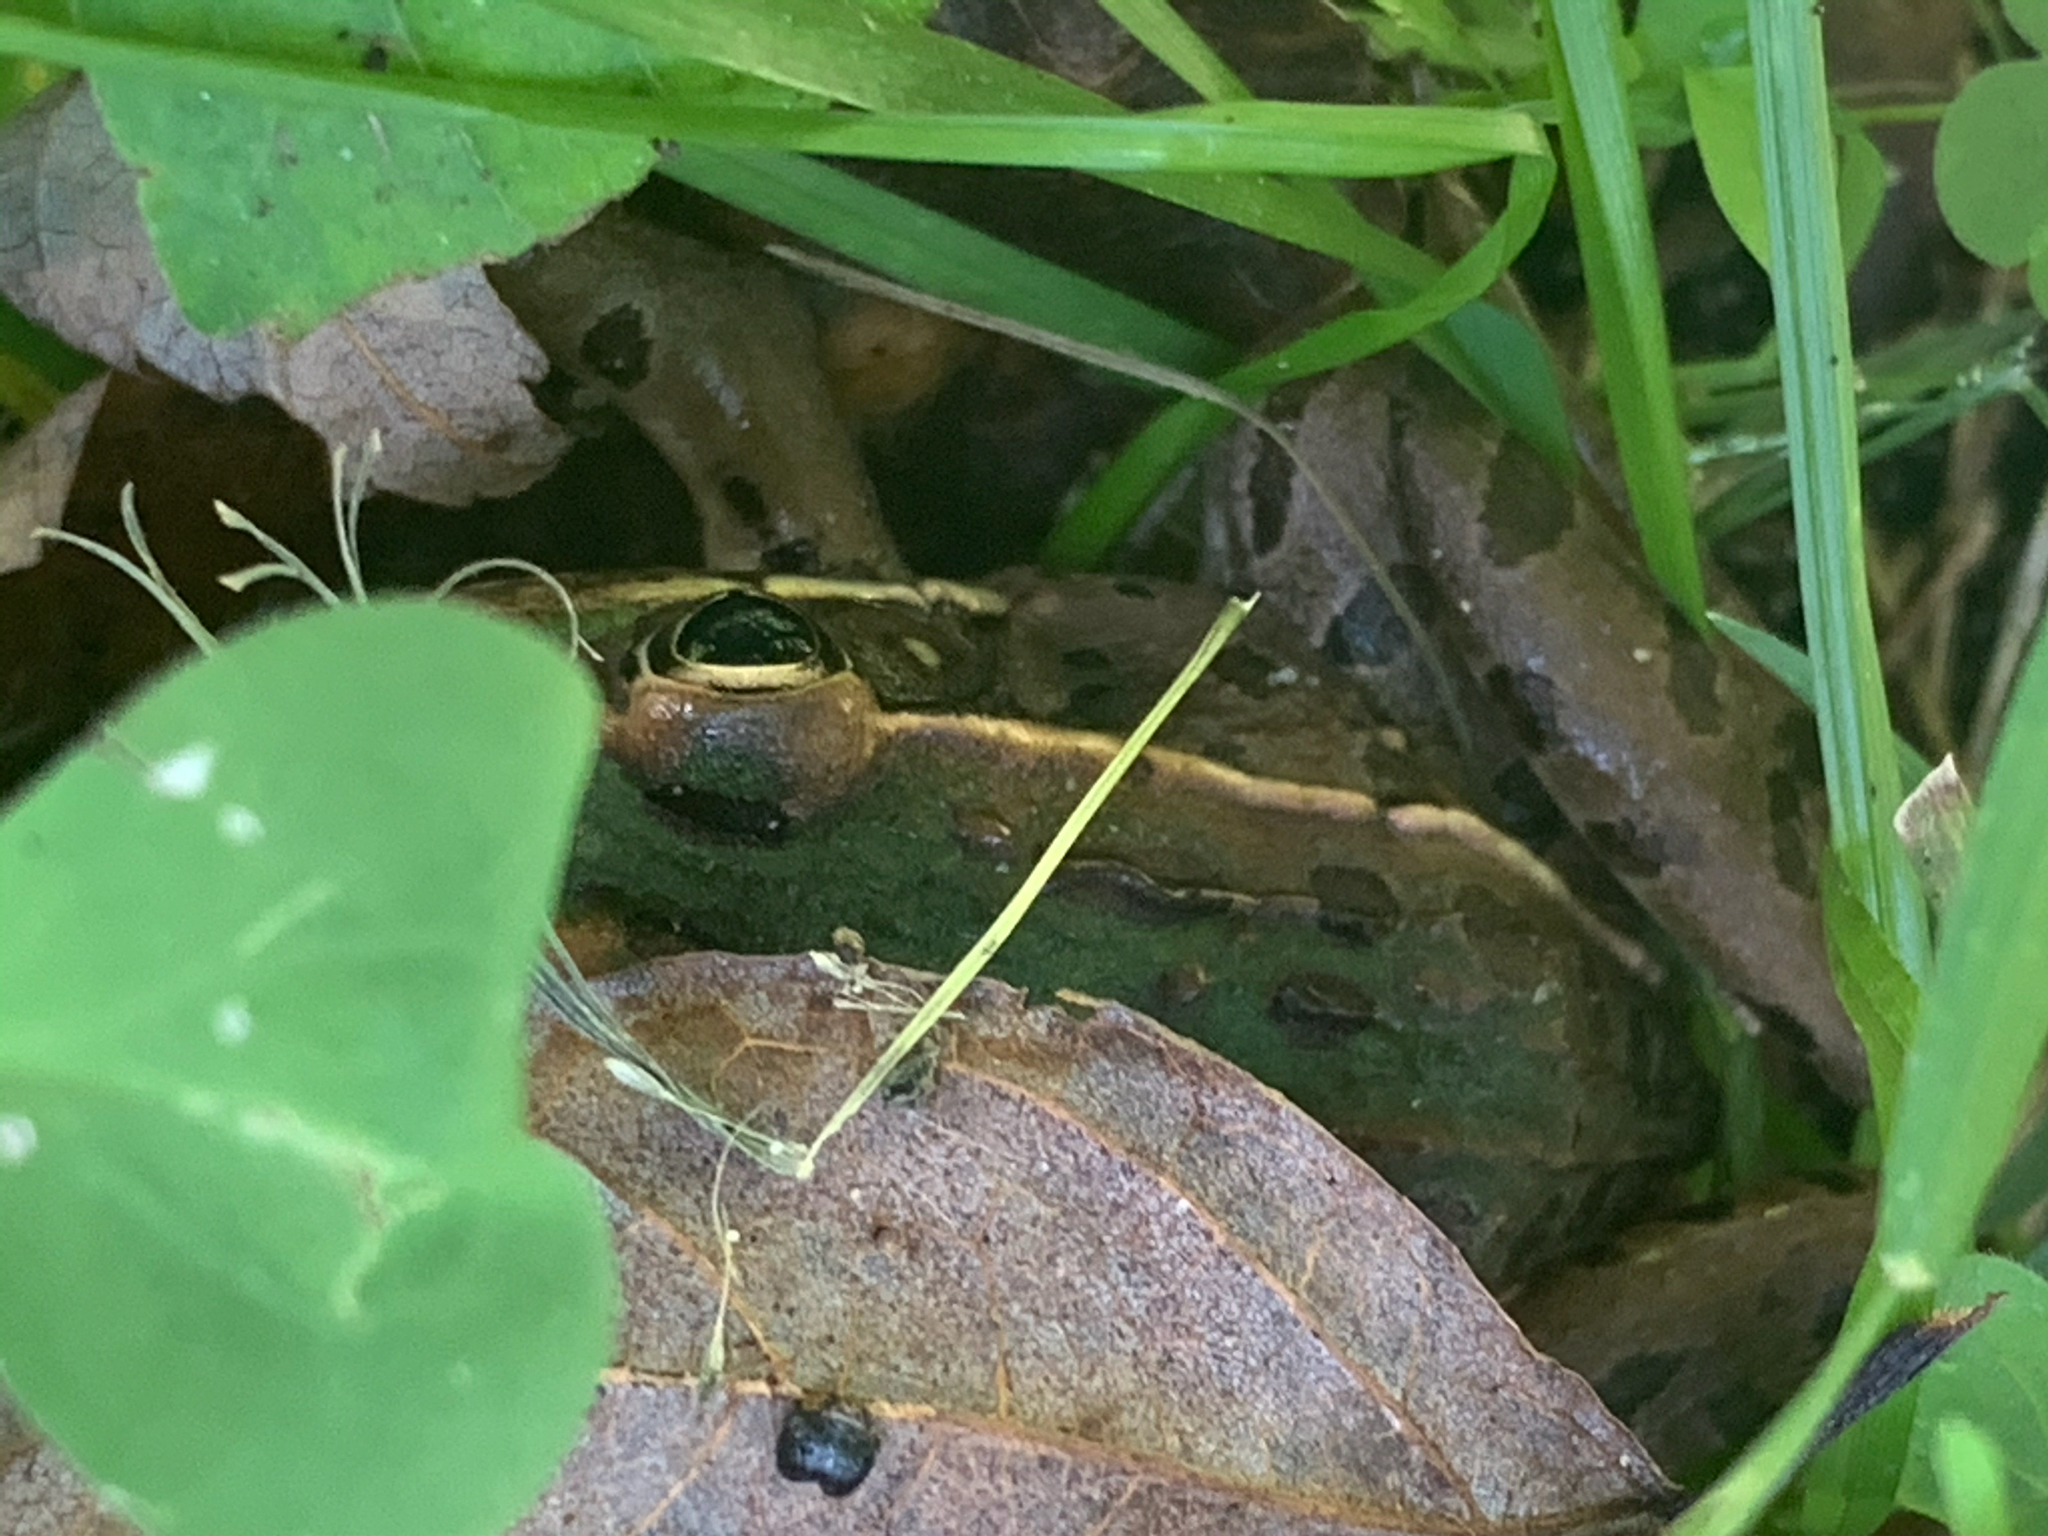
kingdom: Animalia
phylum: Chordata
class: Amphibia
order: Anura
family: Ranidae
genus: Lithobates
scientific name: Lithobates sphenocephalus
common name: Southern leopard frog
